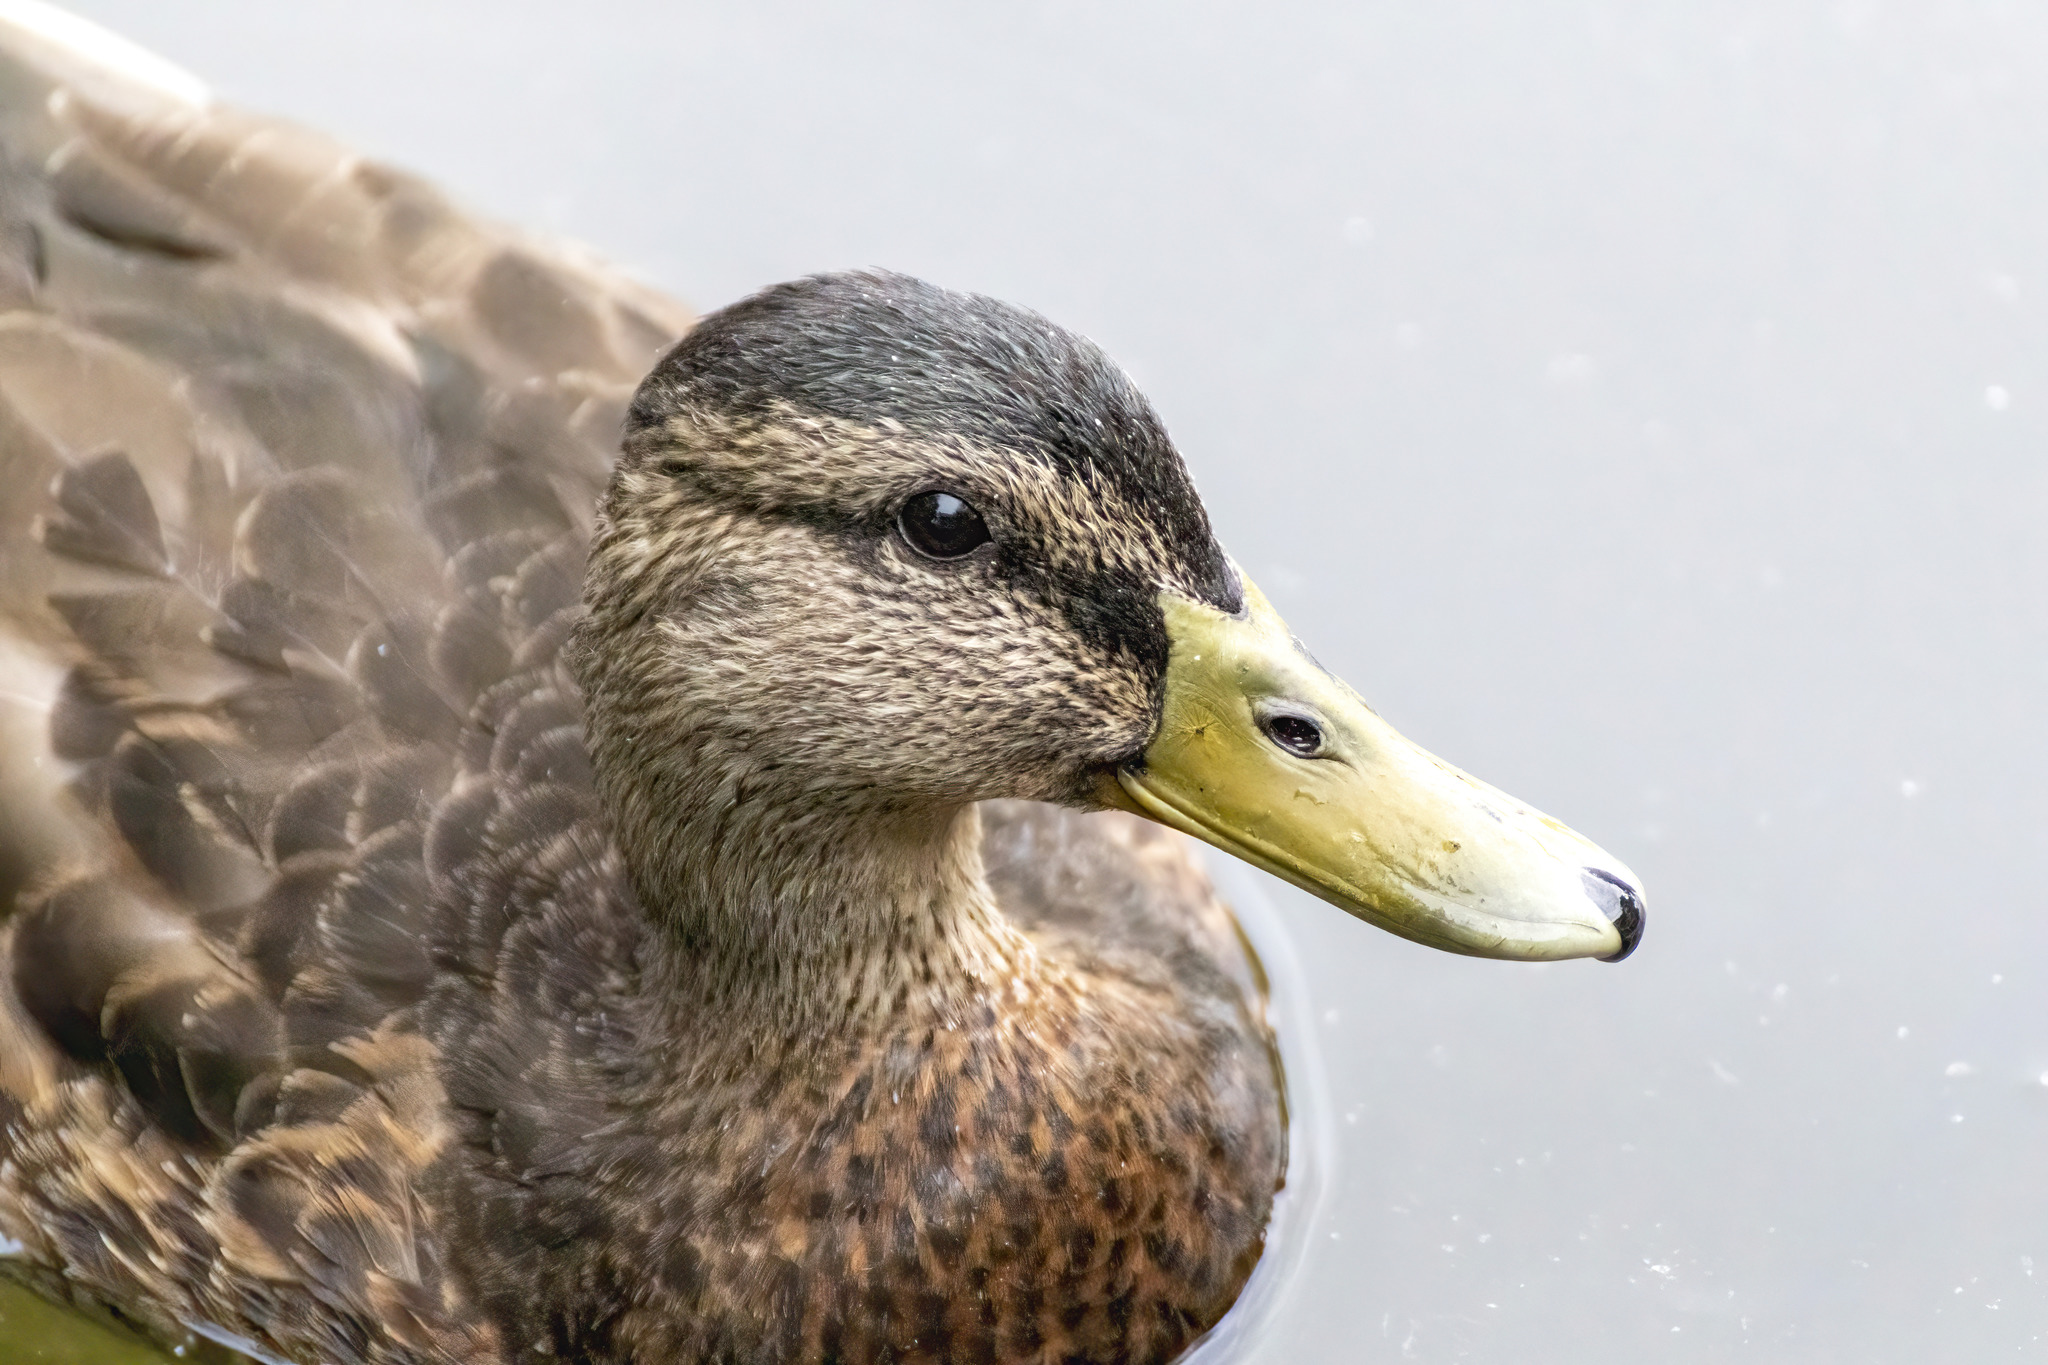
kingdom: Animalia
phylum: Chordata
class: Aves
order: Anseriformes
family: Anatidae
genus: Anas
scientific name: Anas platyrhynchos
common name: Mallard
